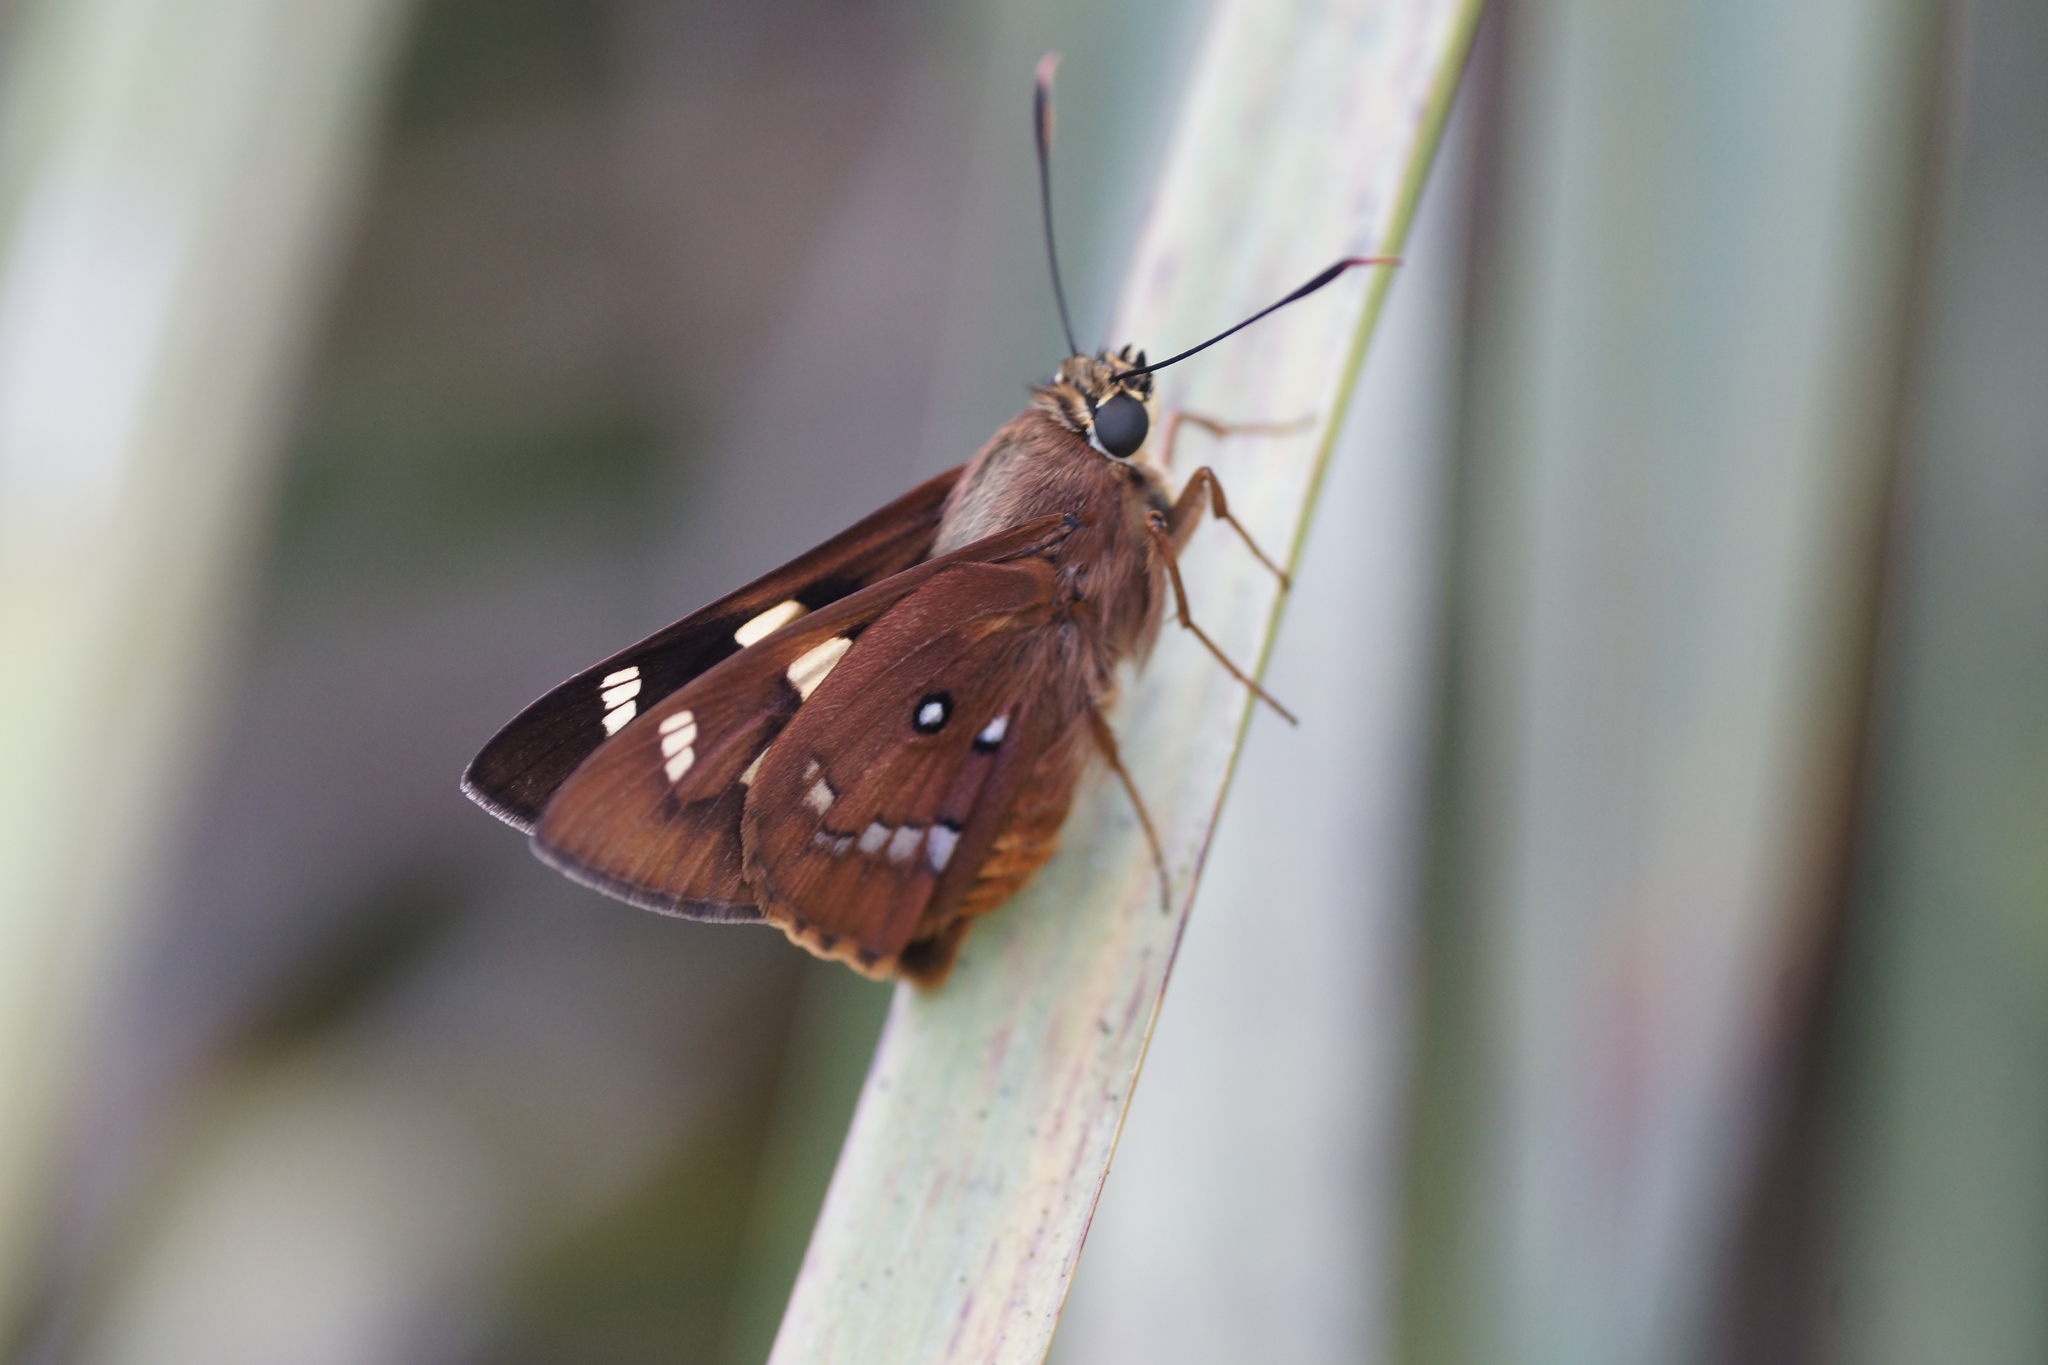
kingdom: Animalia
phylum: Arthropoda
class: Insecta
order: Lepidoptera
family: Hesperiidae
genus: Trapezites
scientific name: Trapezites symmomus
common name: Splendid ochre
